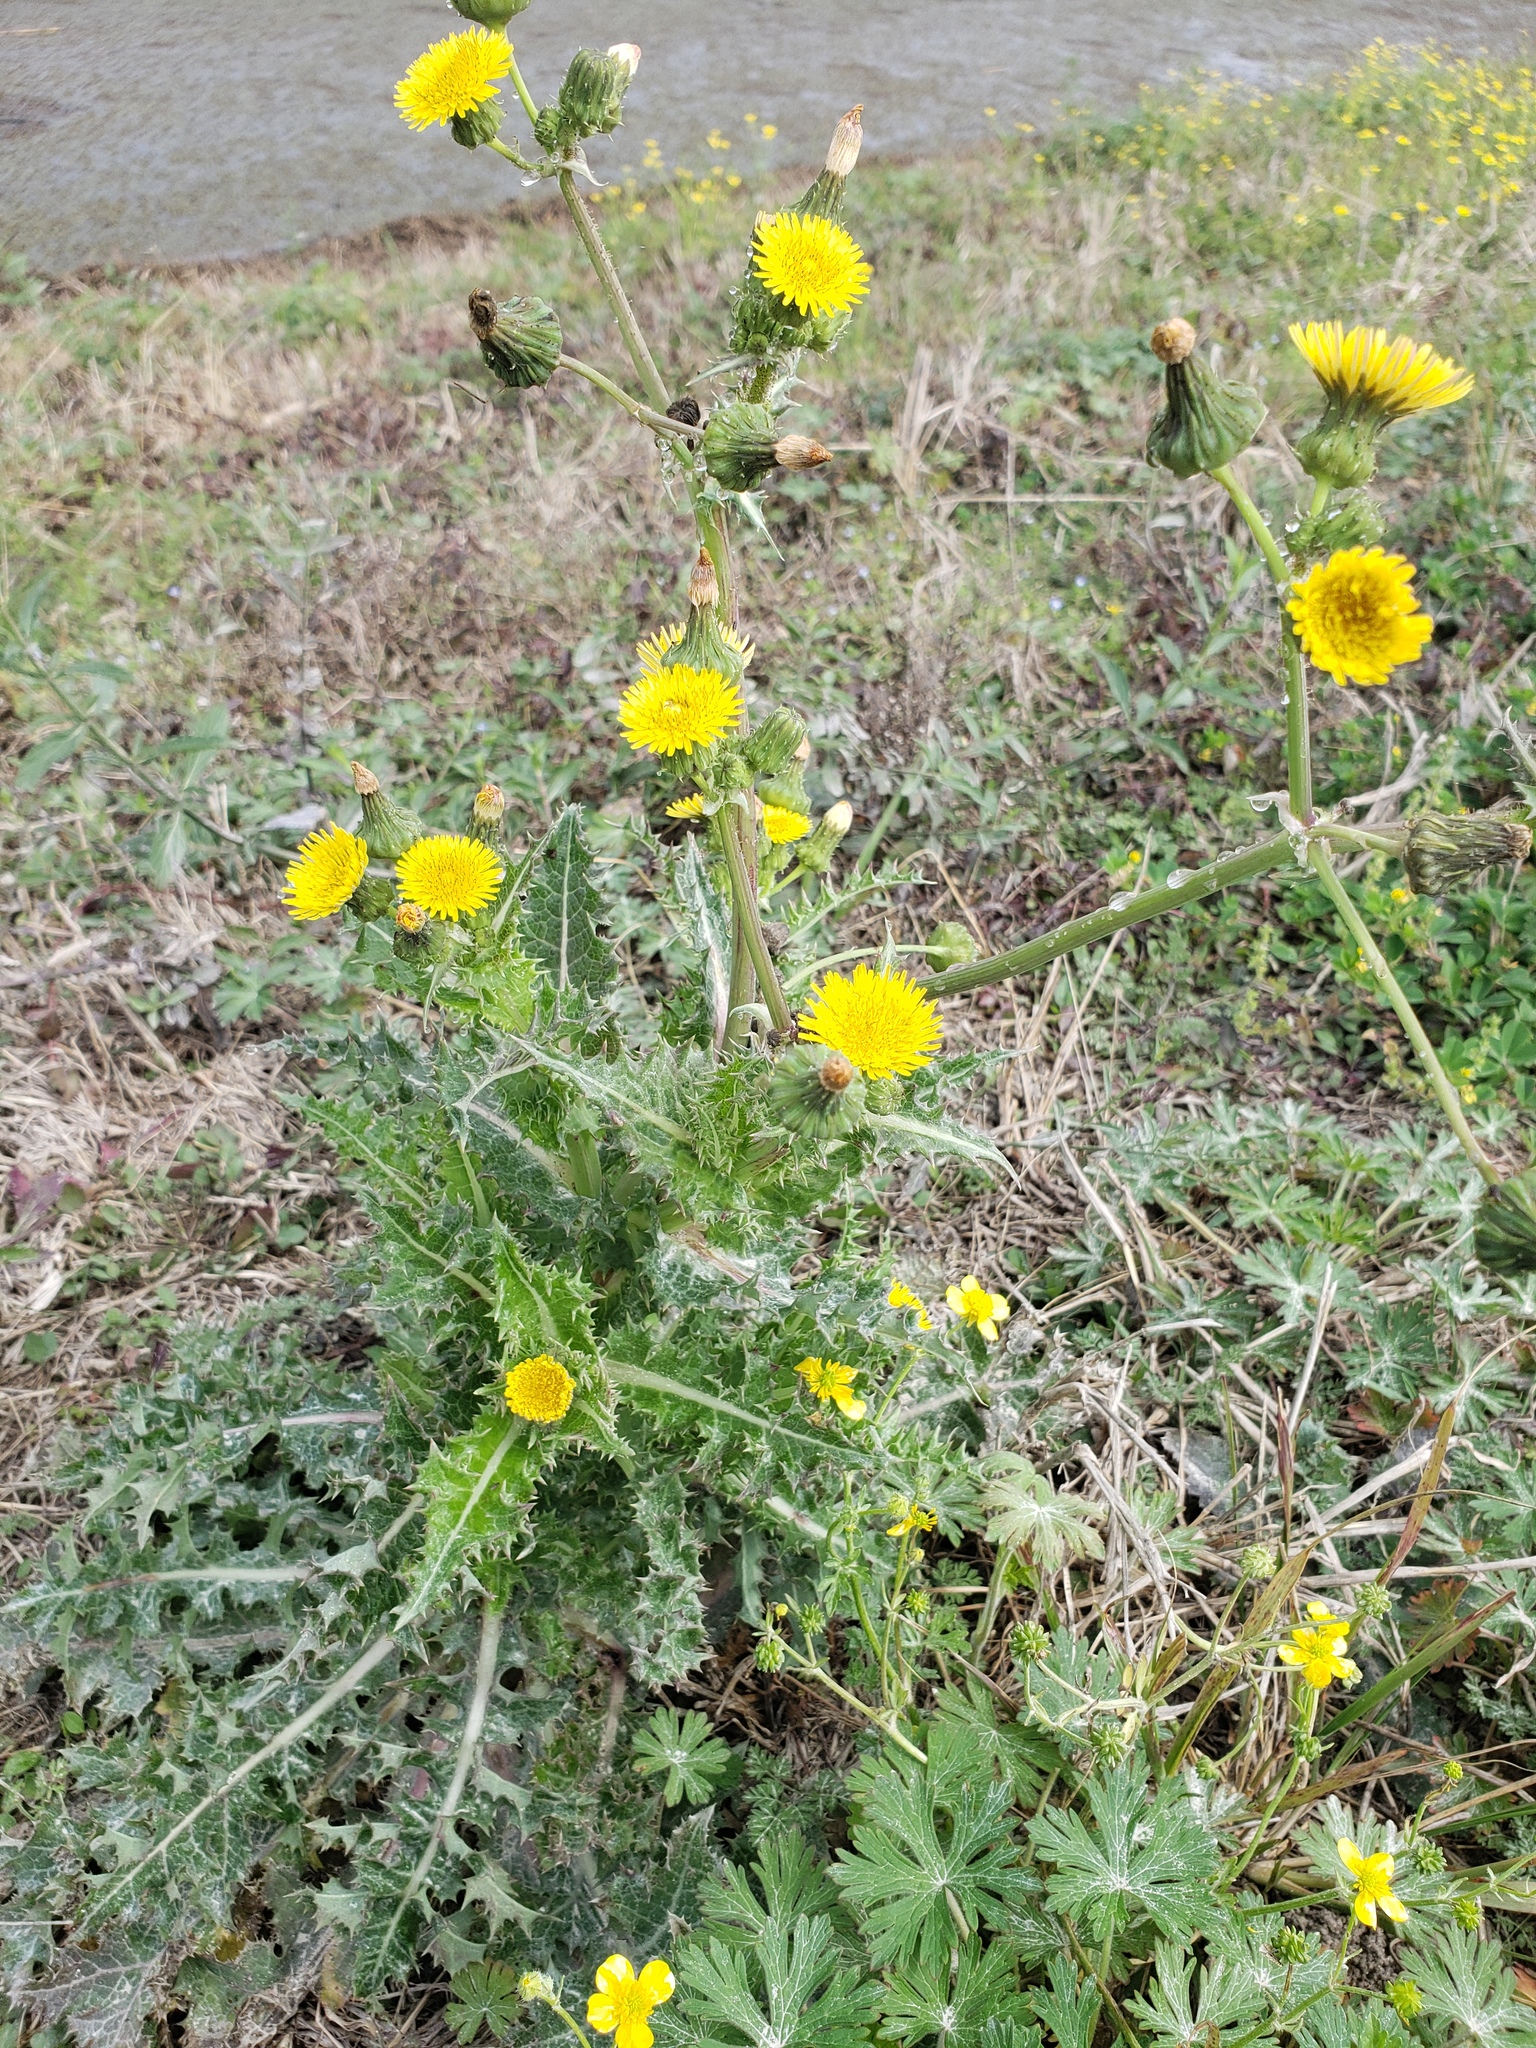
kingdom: Plantae
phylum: Tracheophyta
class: Magnoliopsida
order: Asterales
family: Asteraceae
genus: Sonchus
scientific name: Sonchus asper
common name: Prickly sow-thistle
